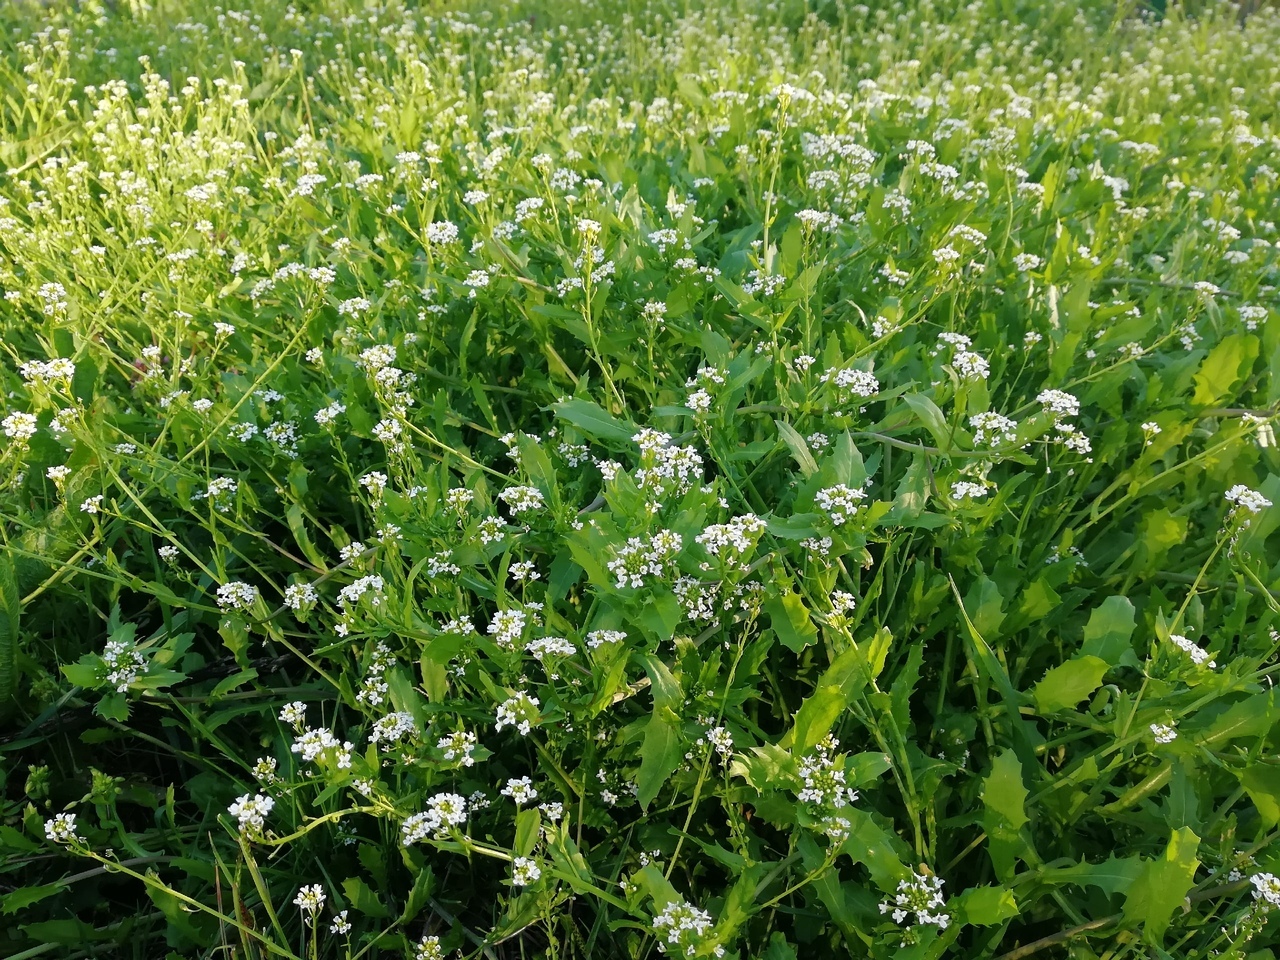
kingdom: Plantae
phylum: Tracheophyta
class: Magnoliopsida
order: Brassicales
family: Brassicaceae
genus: Calepina
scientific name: Calepina irregularis
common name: White ballmustard
